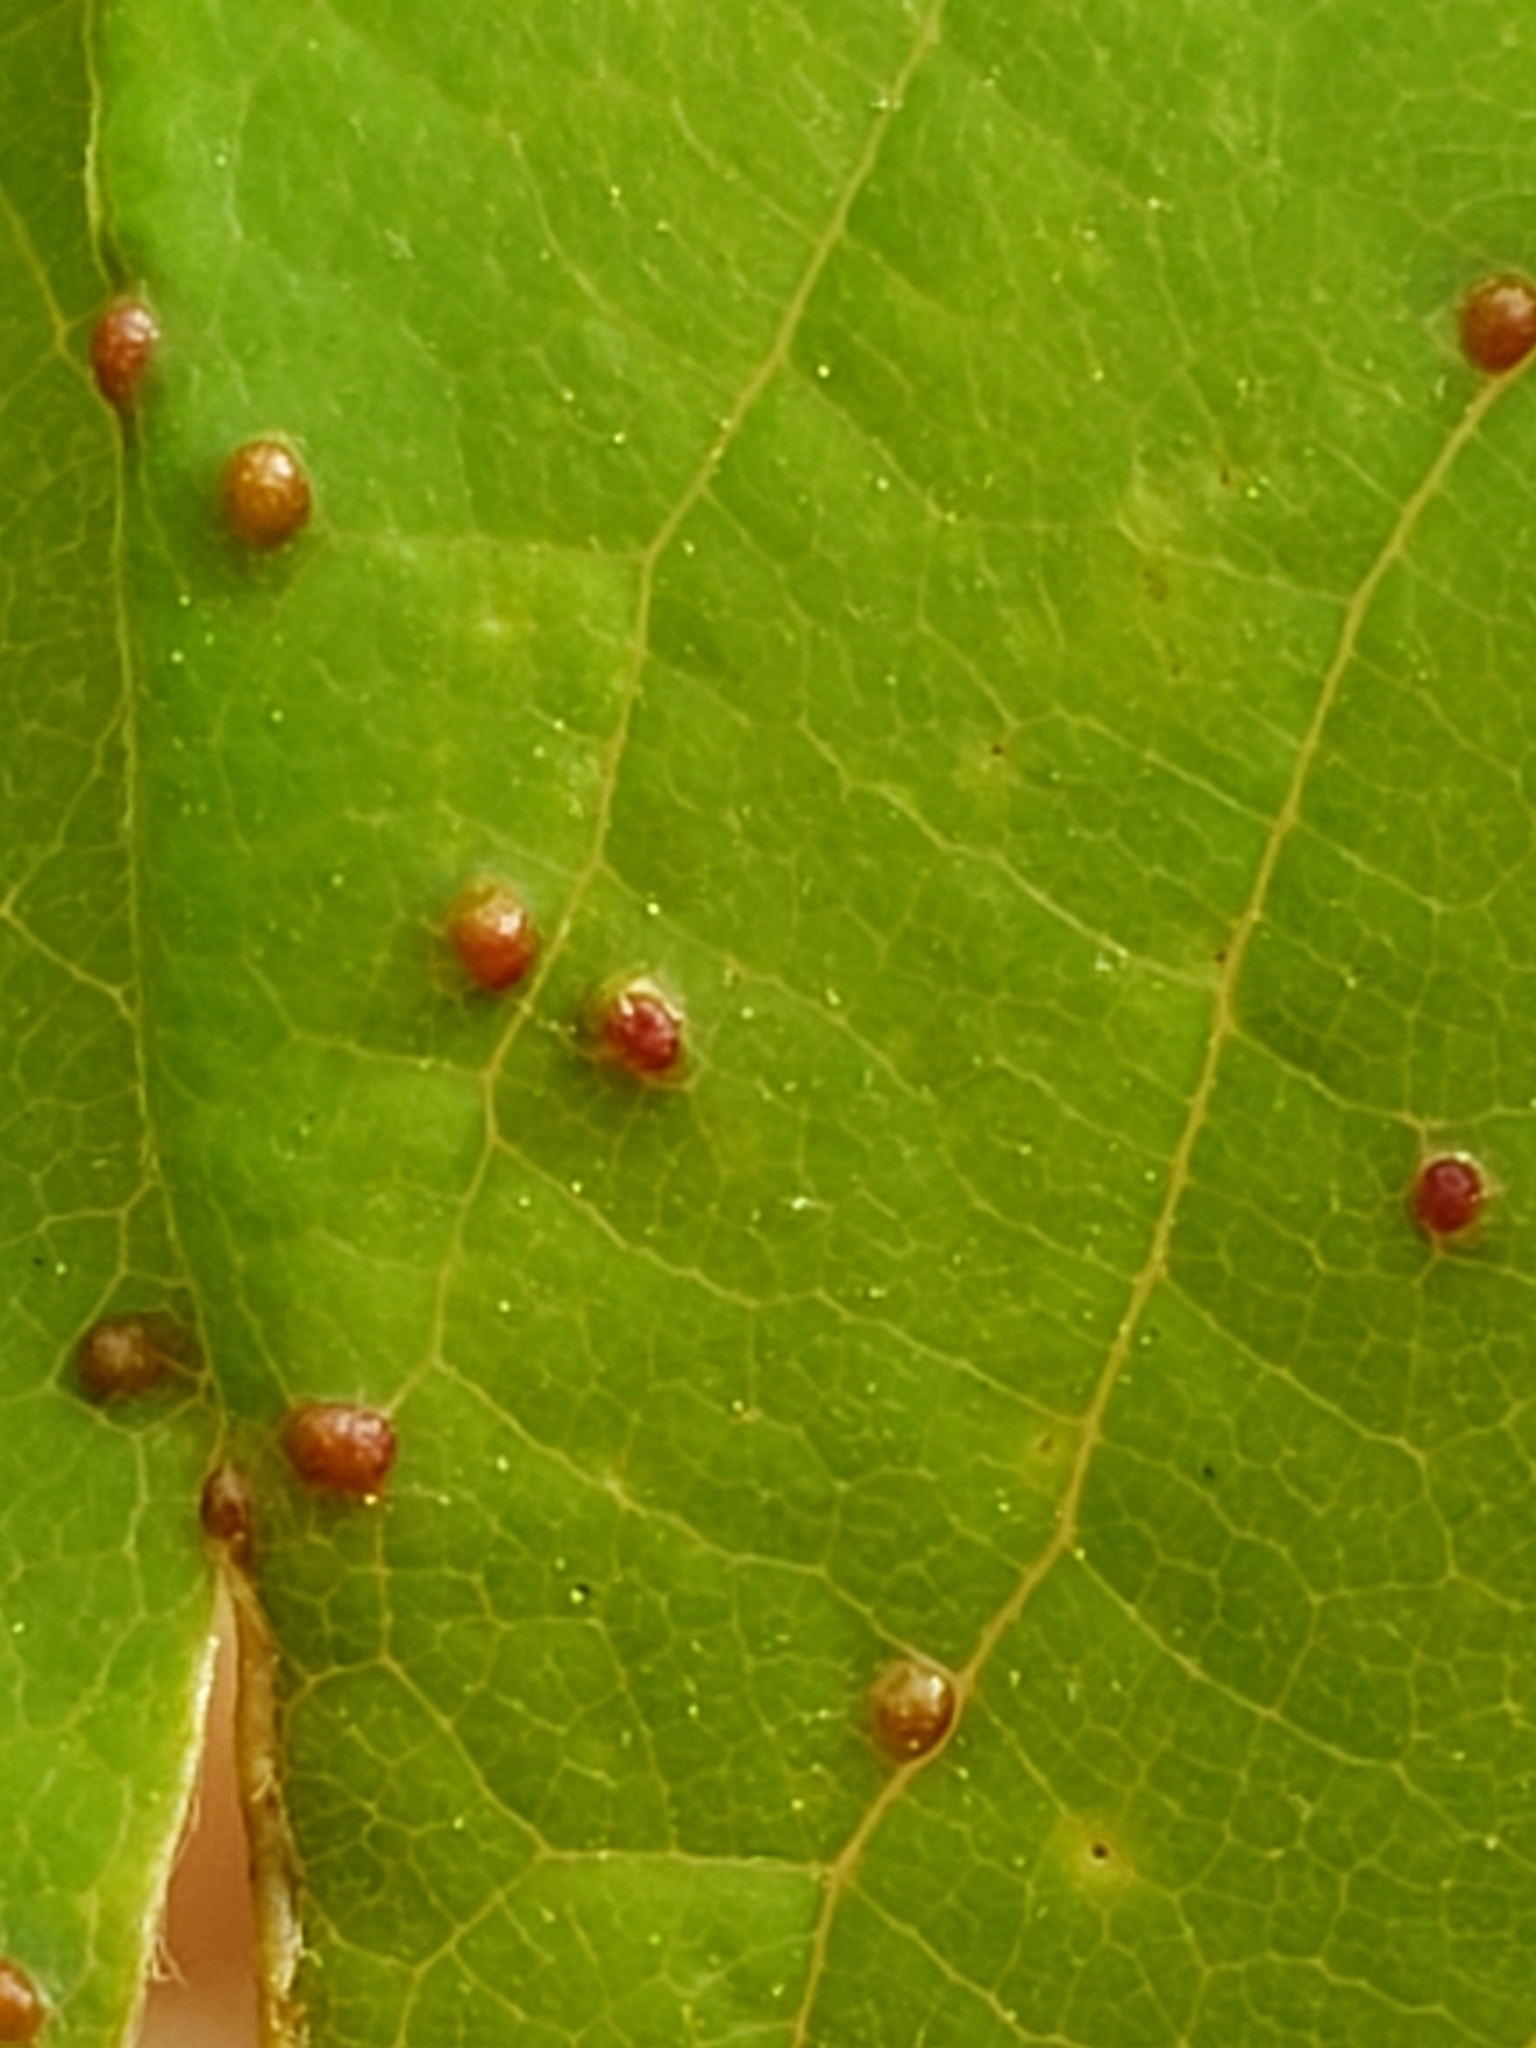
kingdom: Animalia
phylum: Arthropoda
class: Arachnida
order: Trombidiformes
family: Eriophyidae
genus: Aceria
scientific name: Aceria
